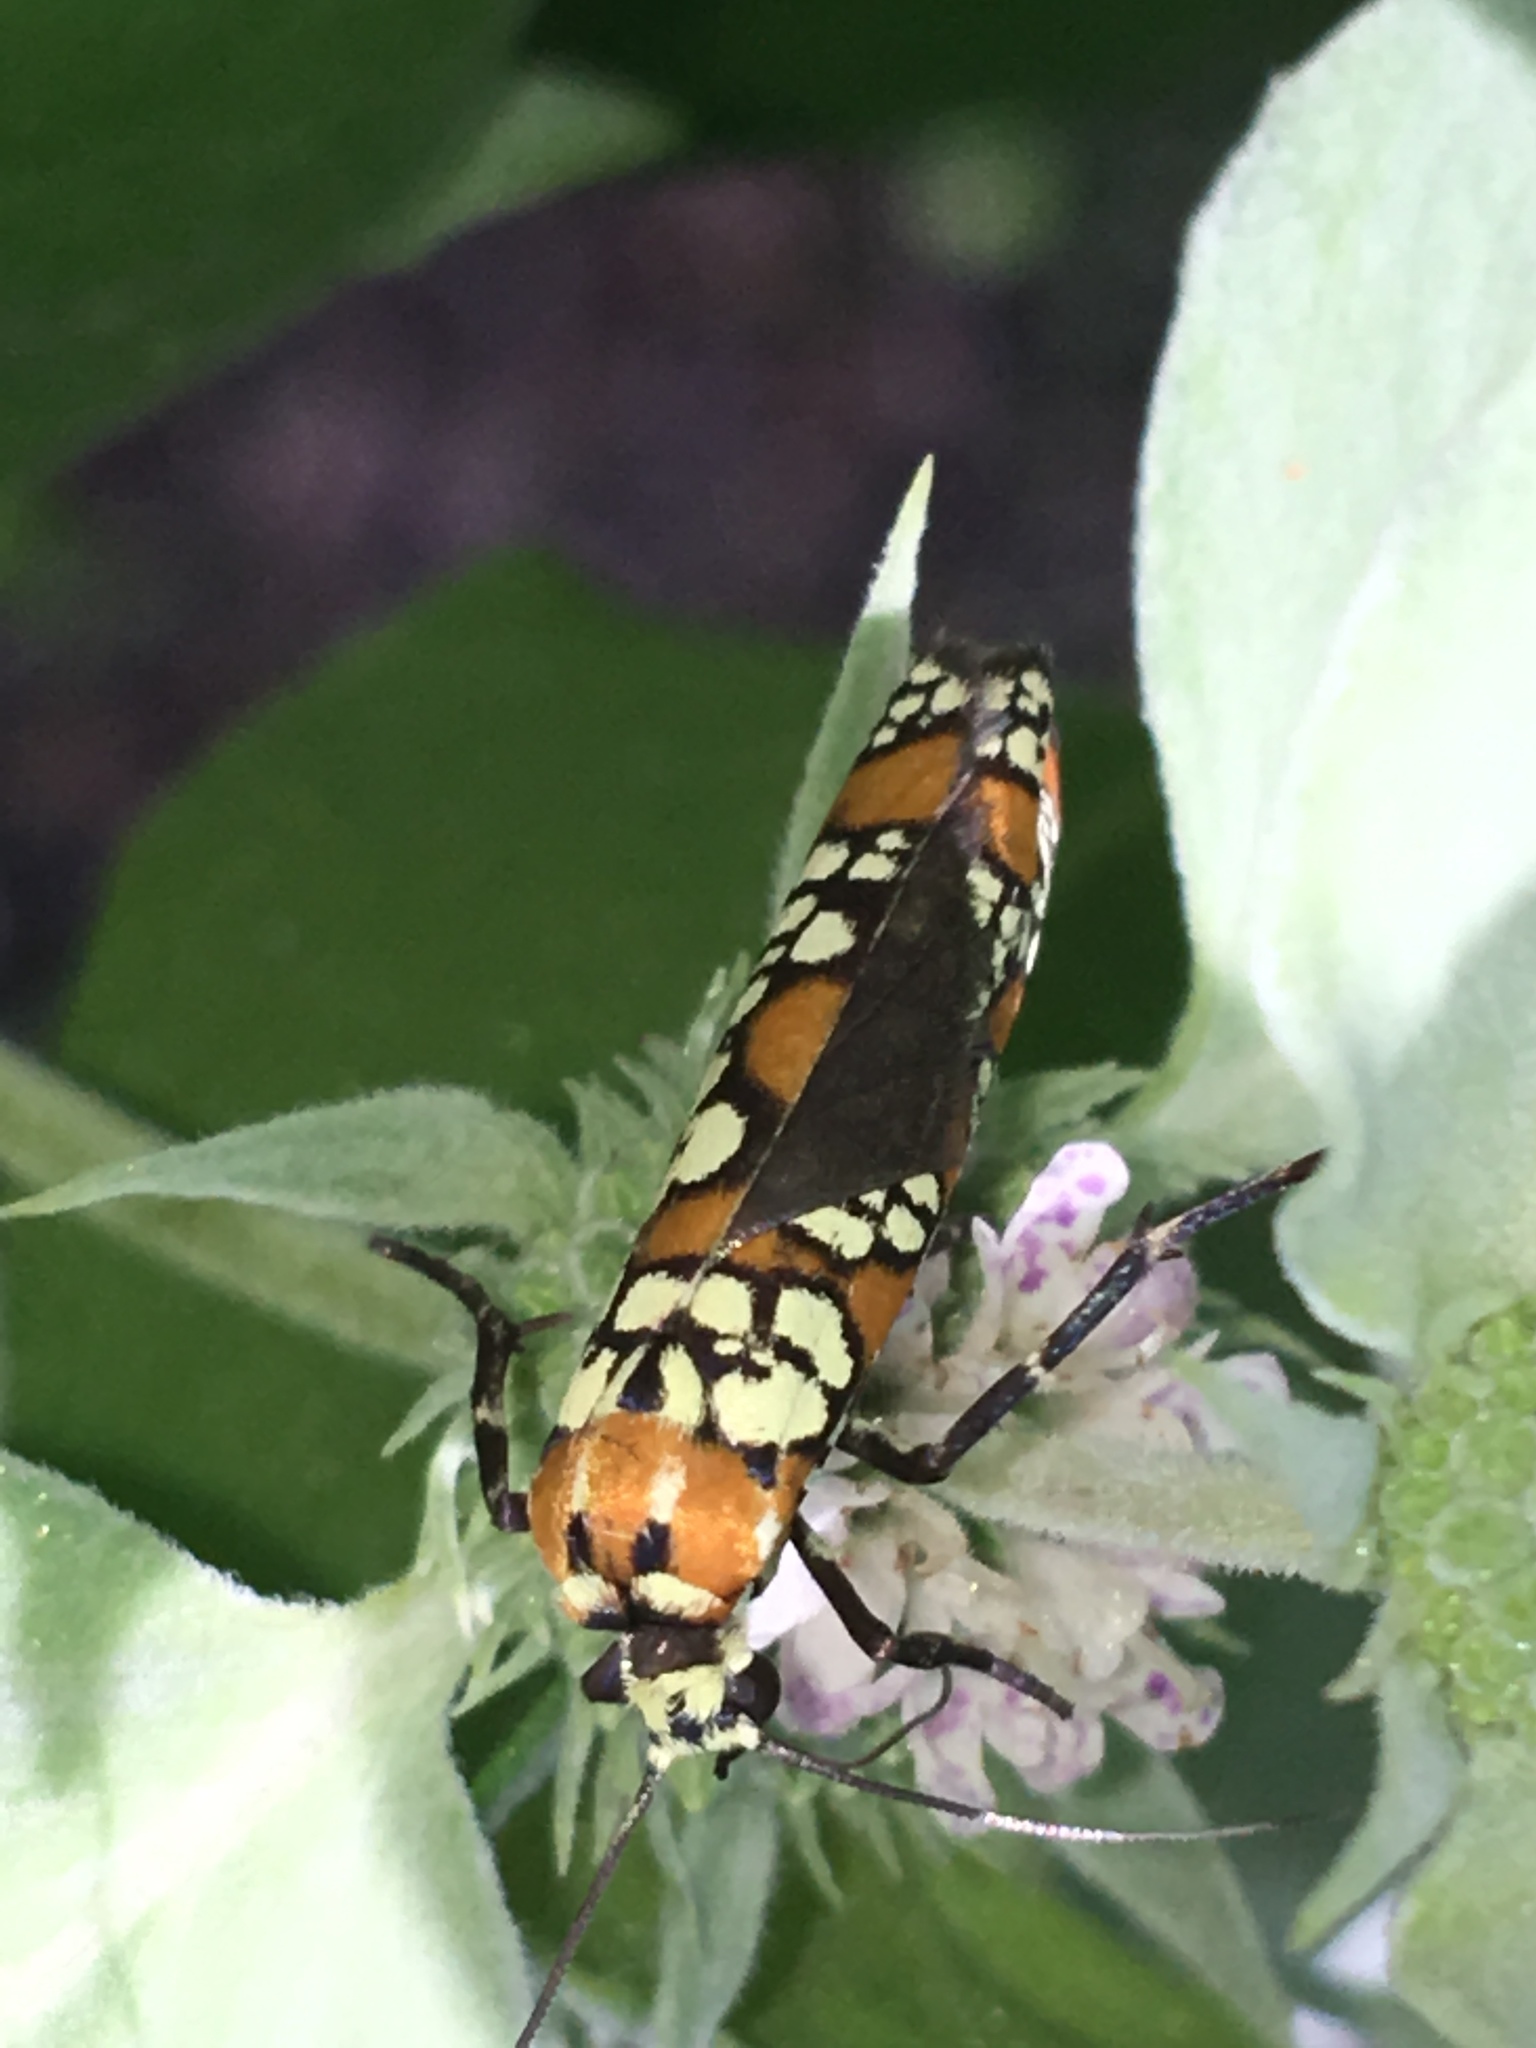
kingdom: Animalia
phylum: Arthropoda
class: Insecta
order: Lepidoptera
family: Attevidae
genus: Atteva
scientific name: Atteva punctella
